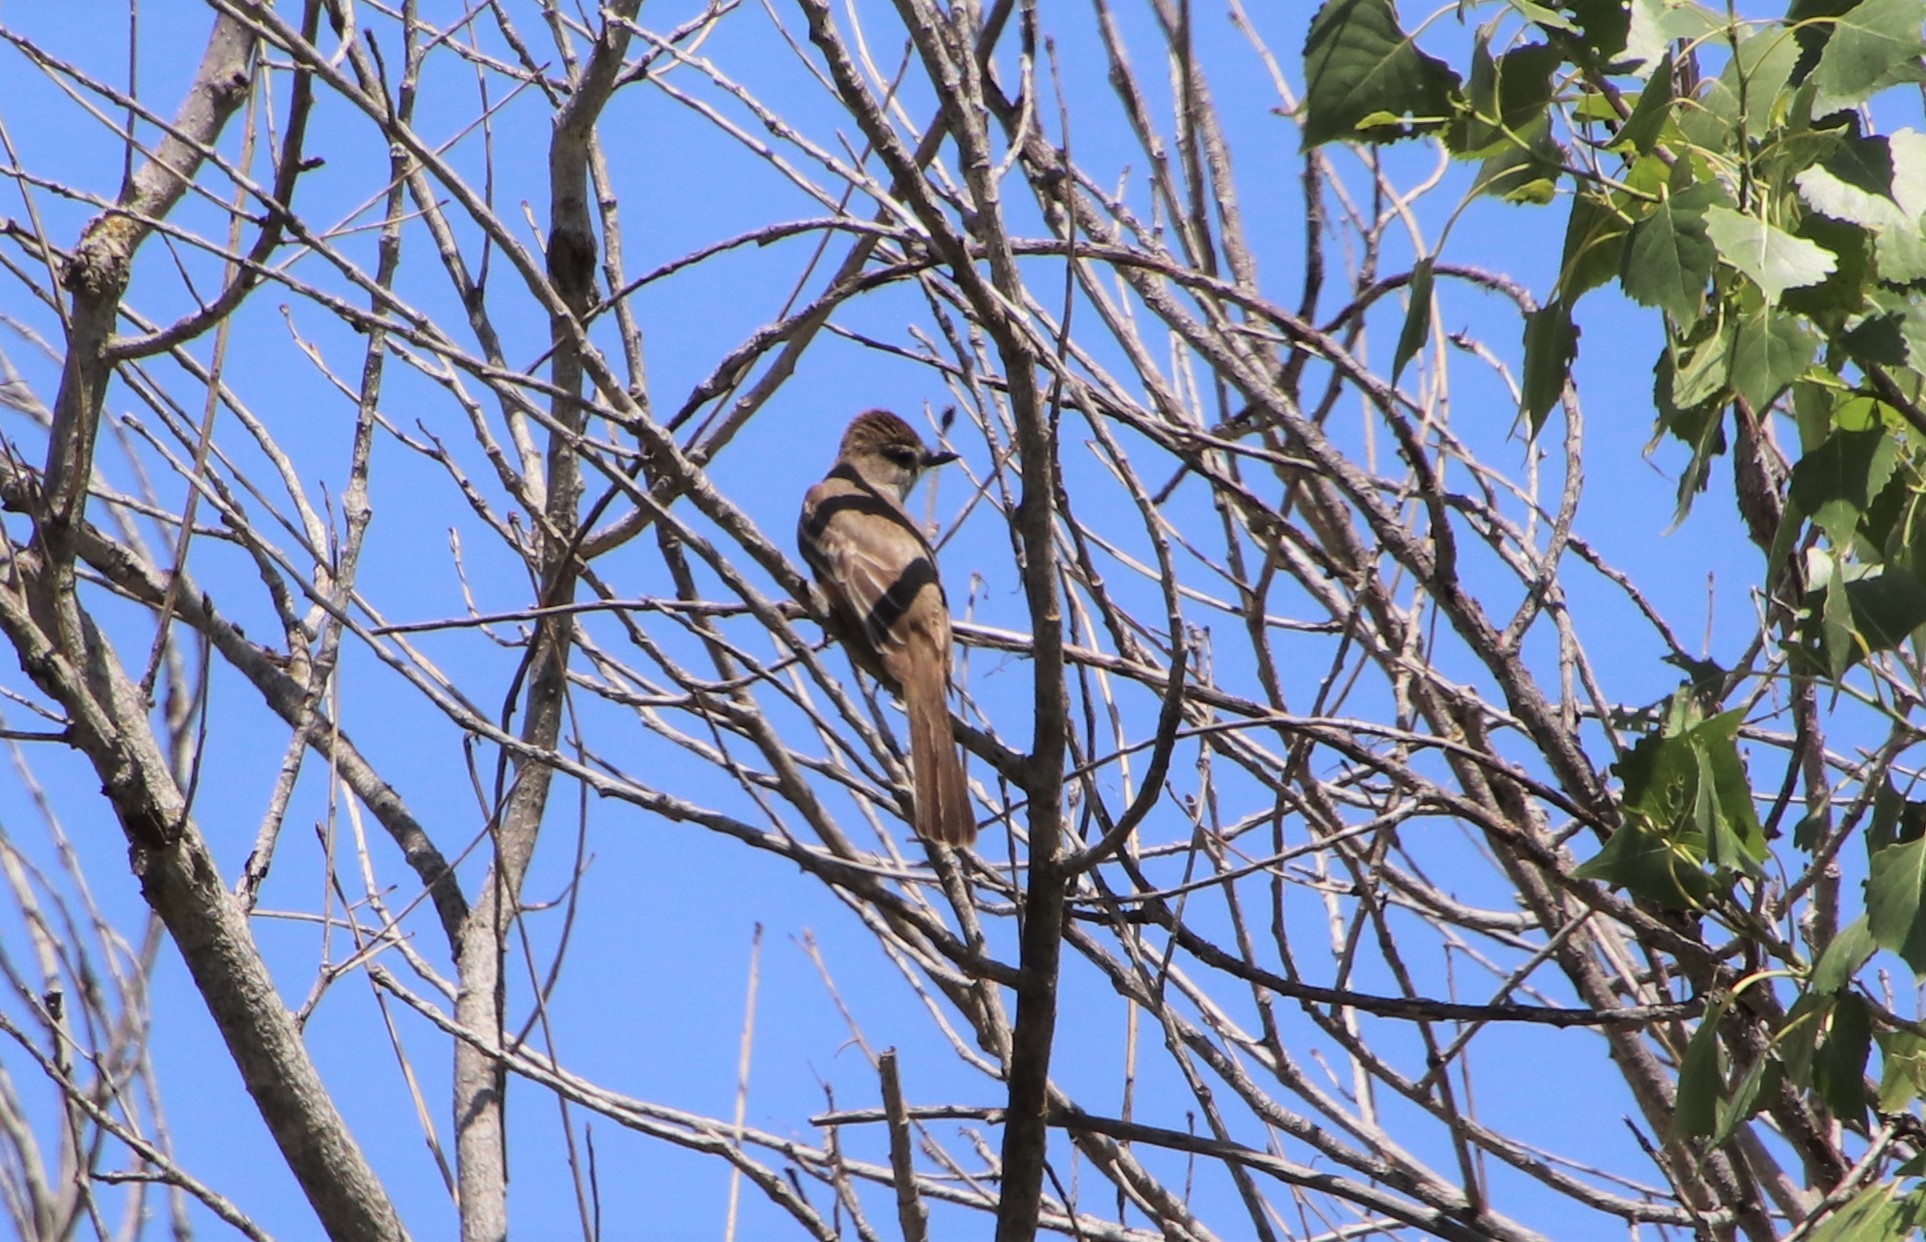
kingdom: Animalia
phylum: Chordata
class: Aves
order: Passeriformes
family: Tyrannidae
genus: Myiarchus
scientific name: Myiarchus cinerascens
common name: Ash-throated flycatcher
